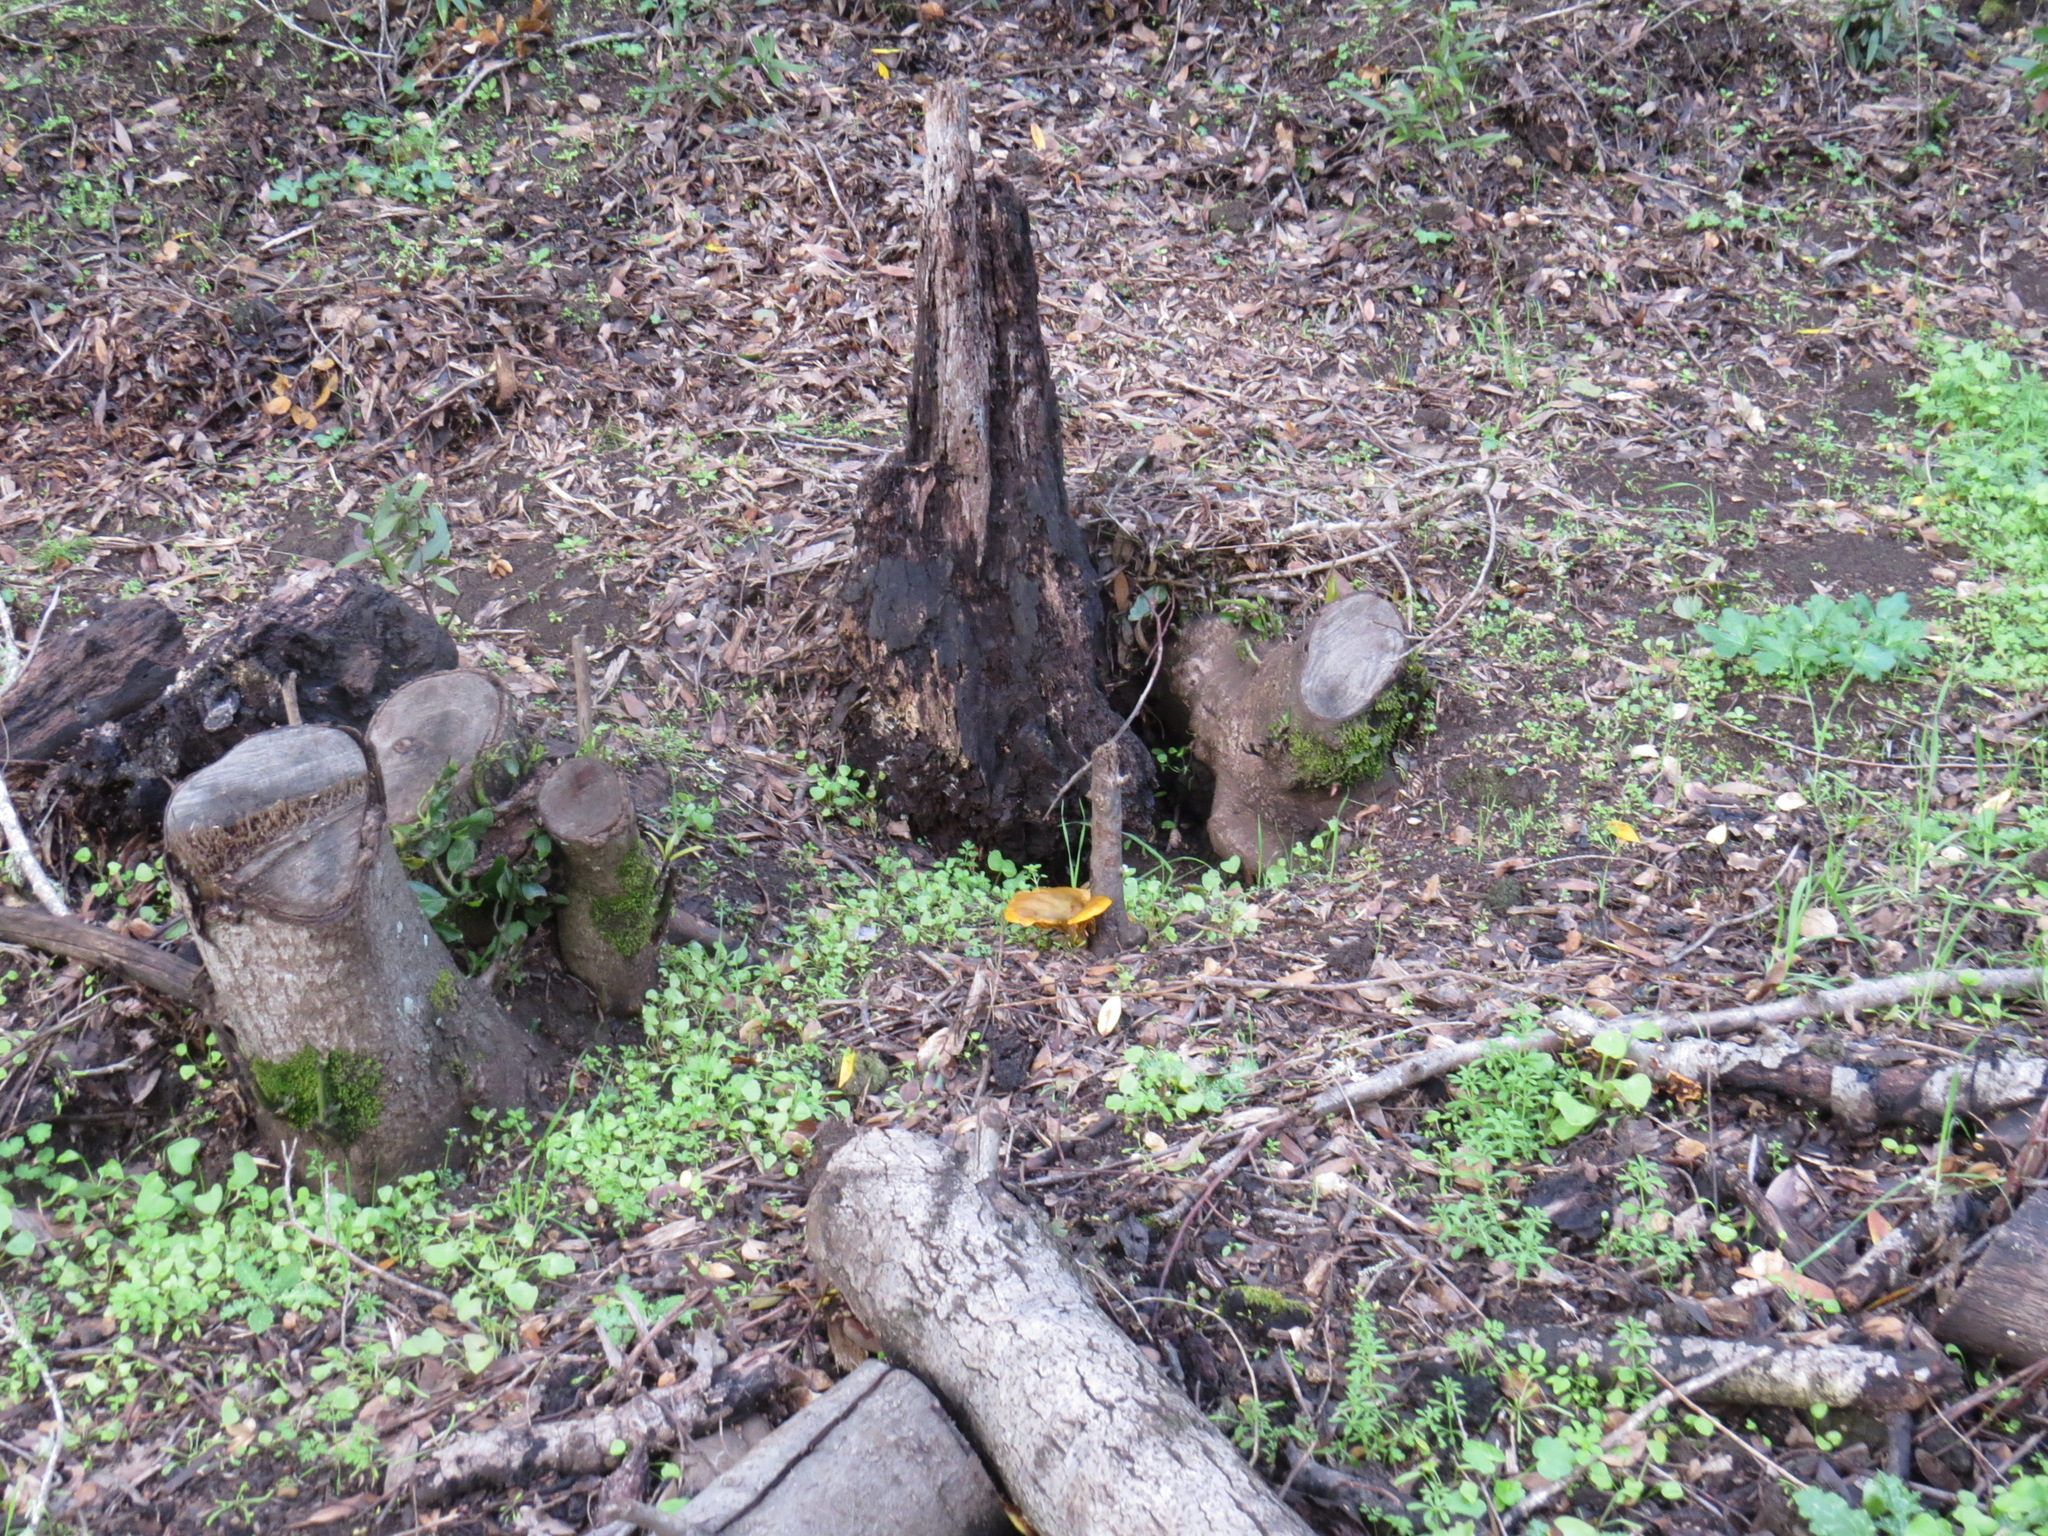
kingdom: Fungi
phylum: Basidiomycota
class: Agaricomycetes
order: Agaricales
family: Omphalotaceae
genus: Omphalotus
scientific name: Omphalotus olivascens
